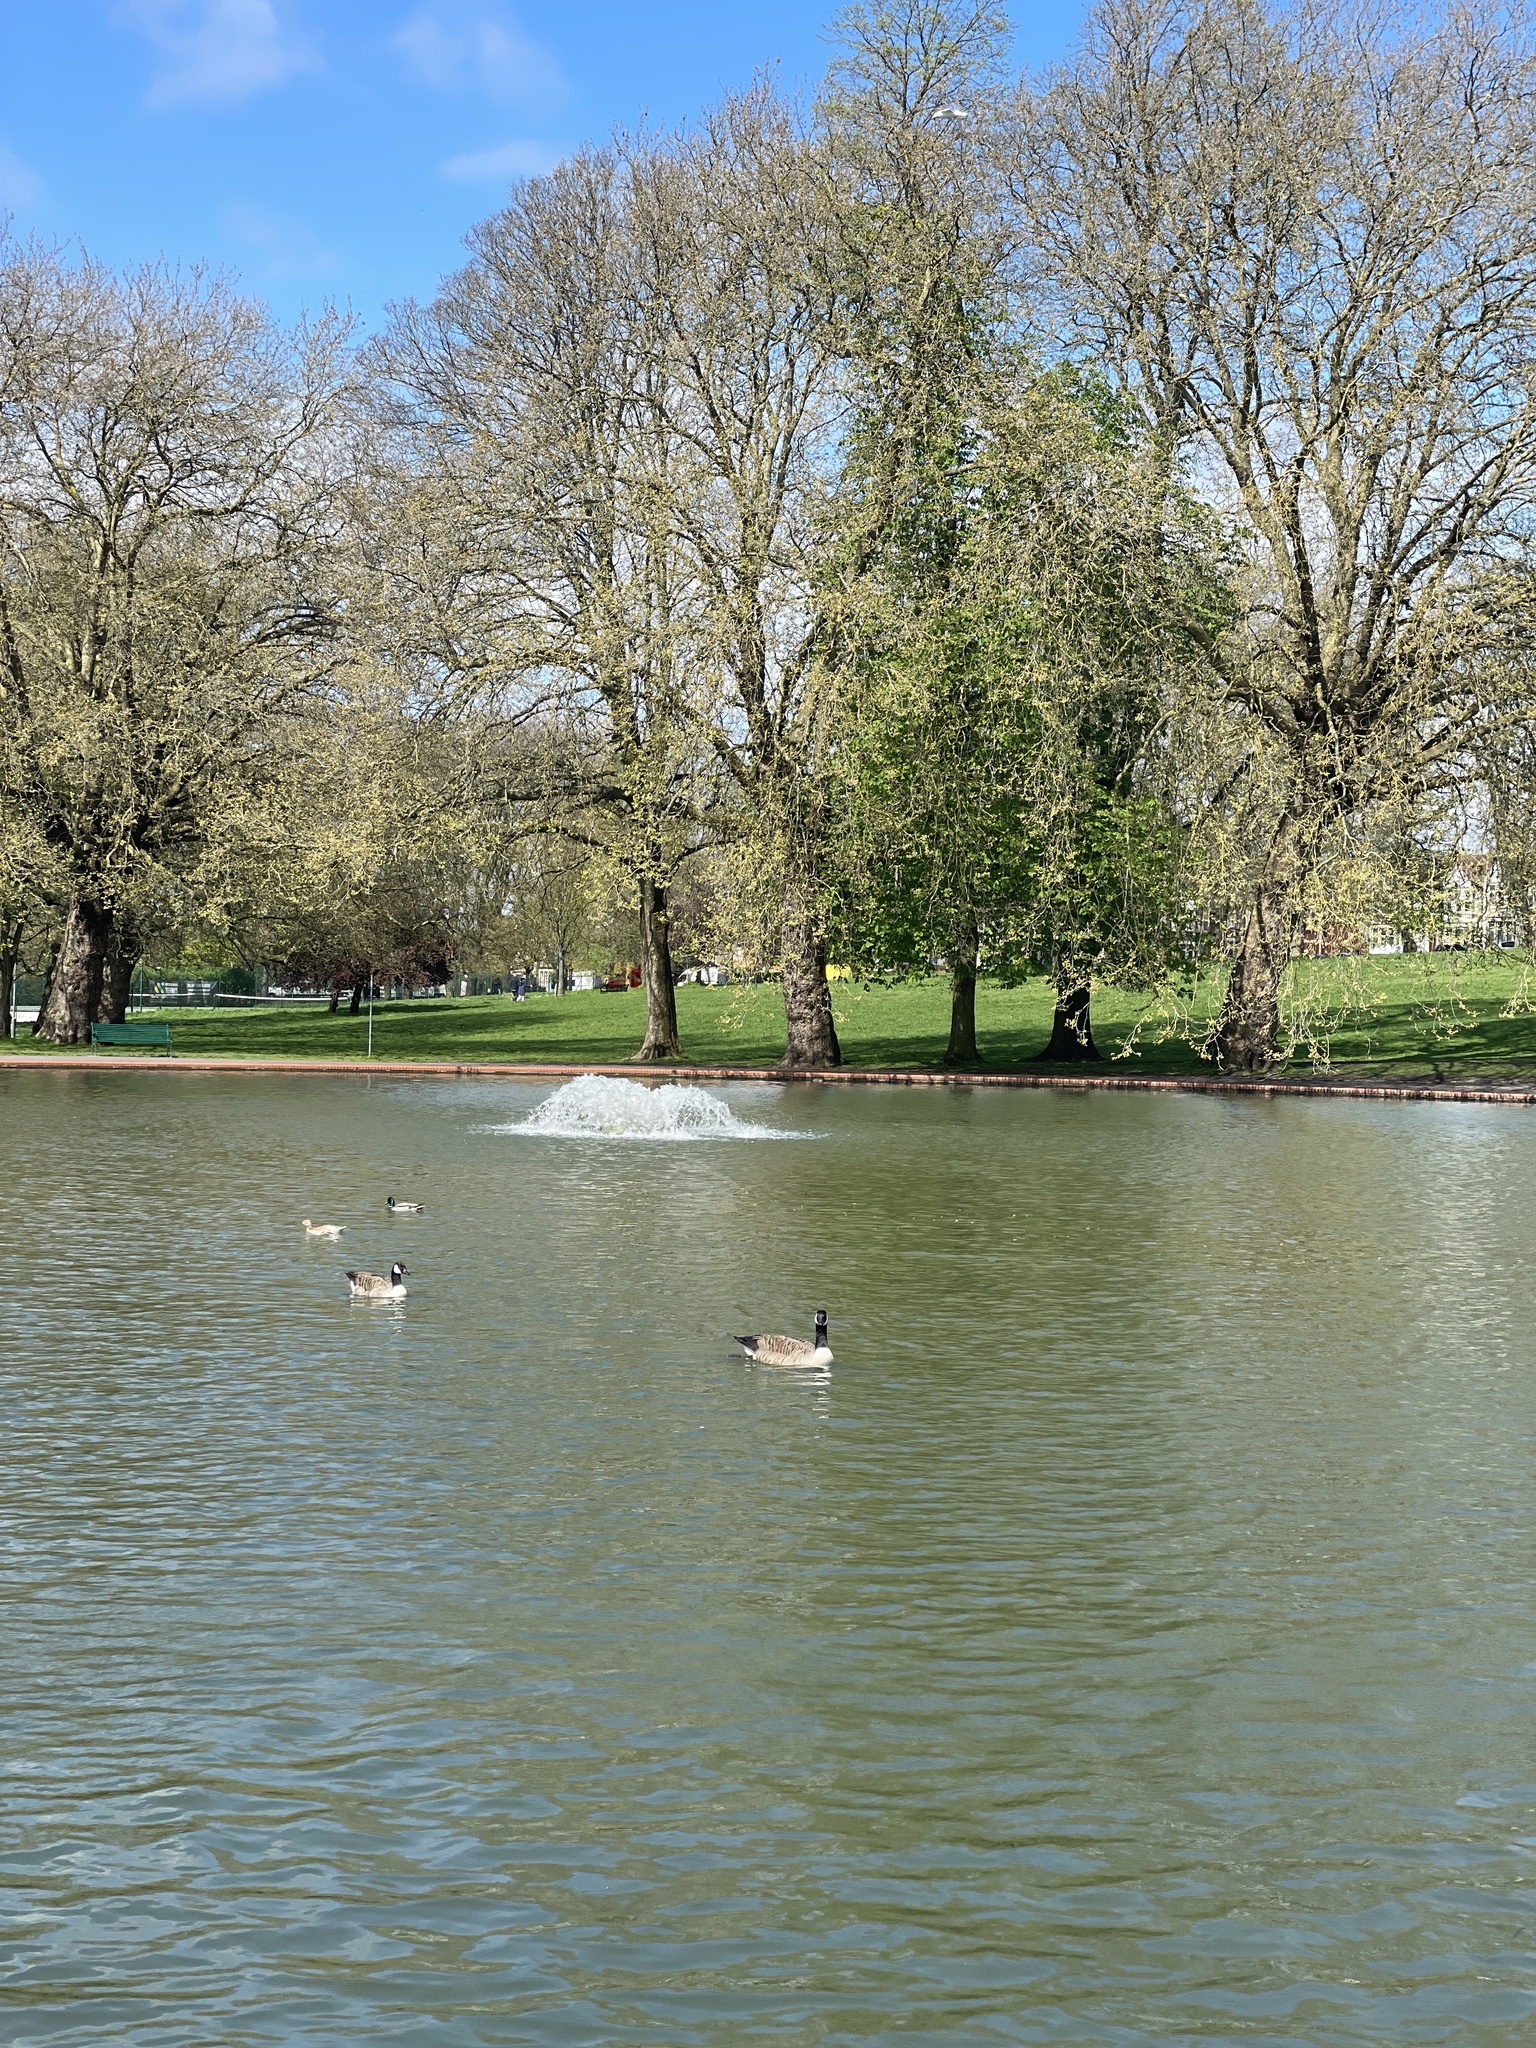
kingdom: Animalia
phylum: Chordata
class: Aves
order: Anseriformes
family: Anatidae
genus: Branta
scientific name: Branta canadensis
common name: Canada goose
